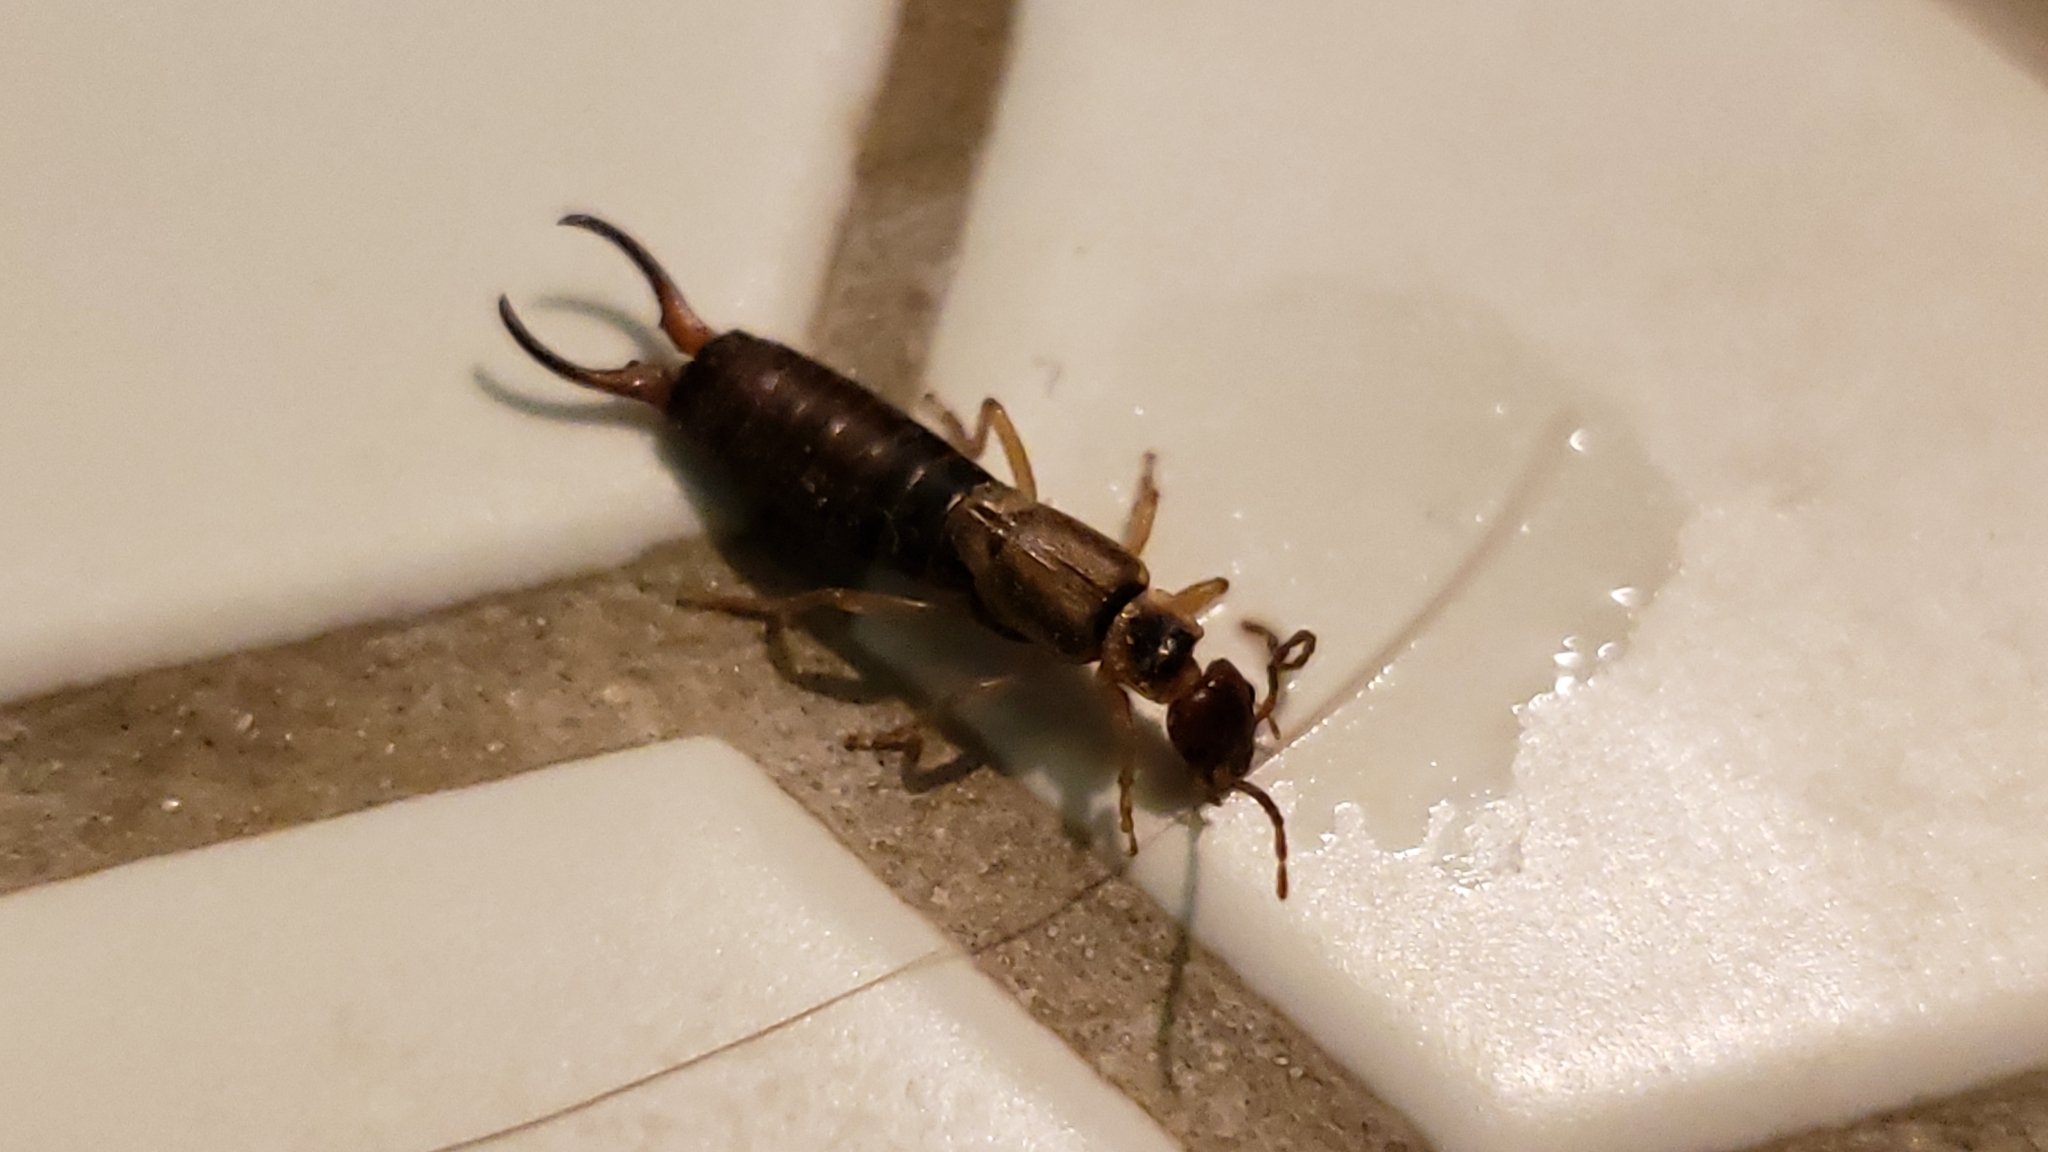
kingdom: Animalia
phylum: Arthropoda
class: Insecta
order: Dermaptera
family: Forficulidae
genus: Forficula
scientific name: Forficula
